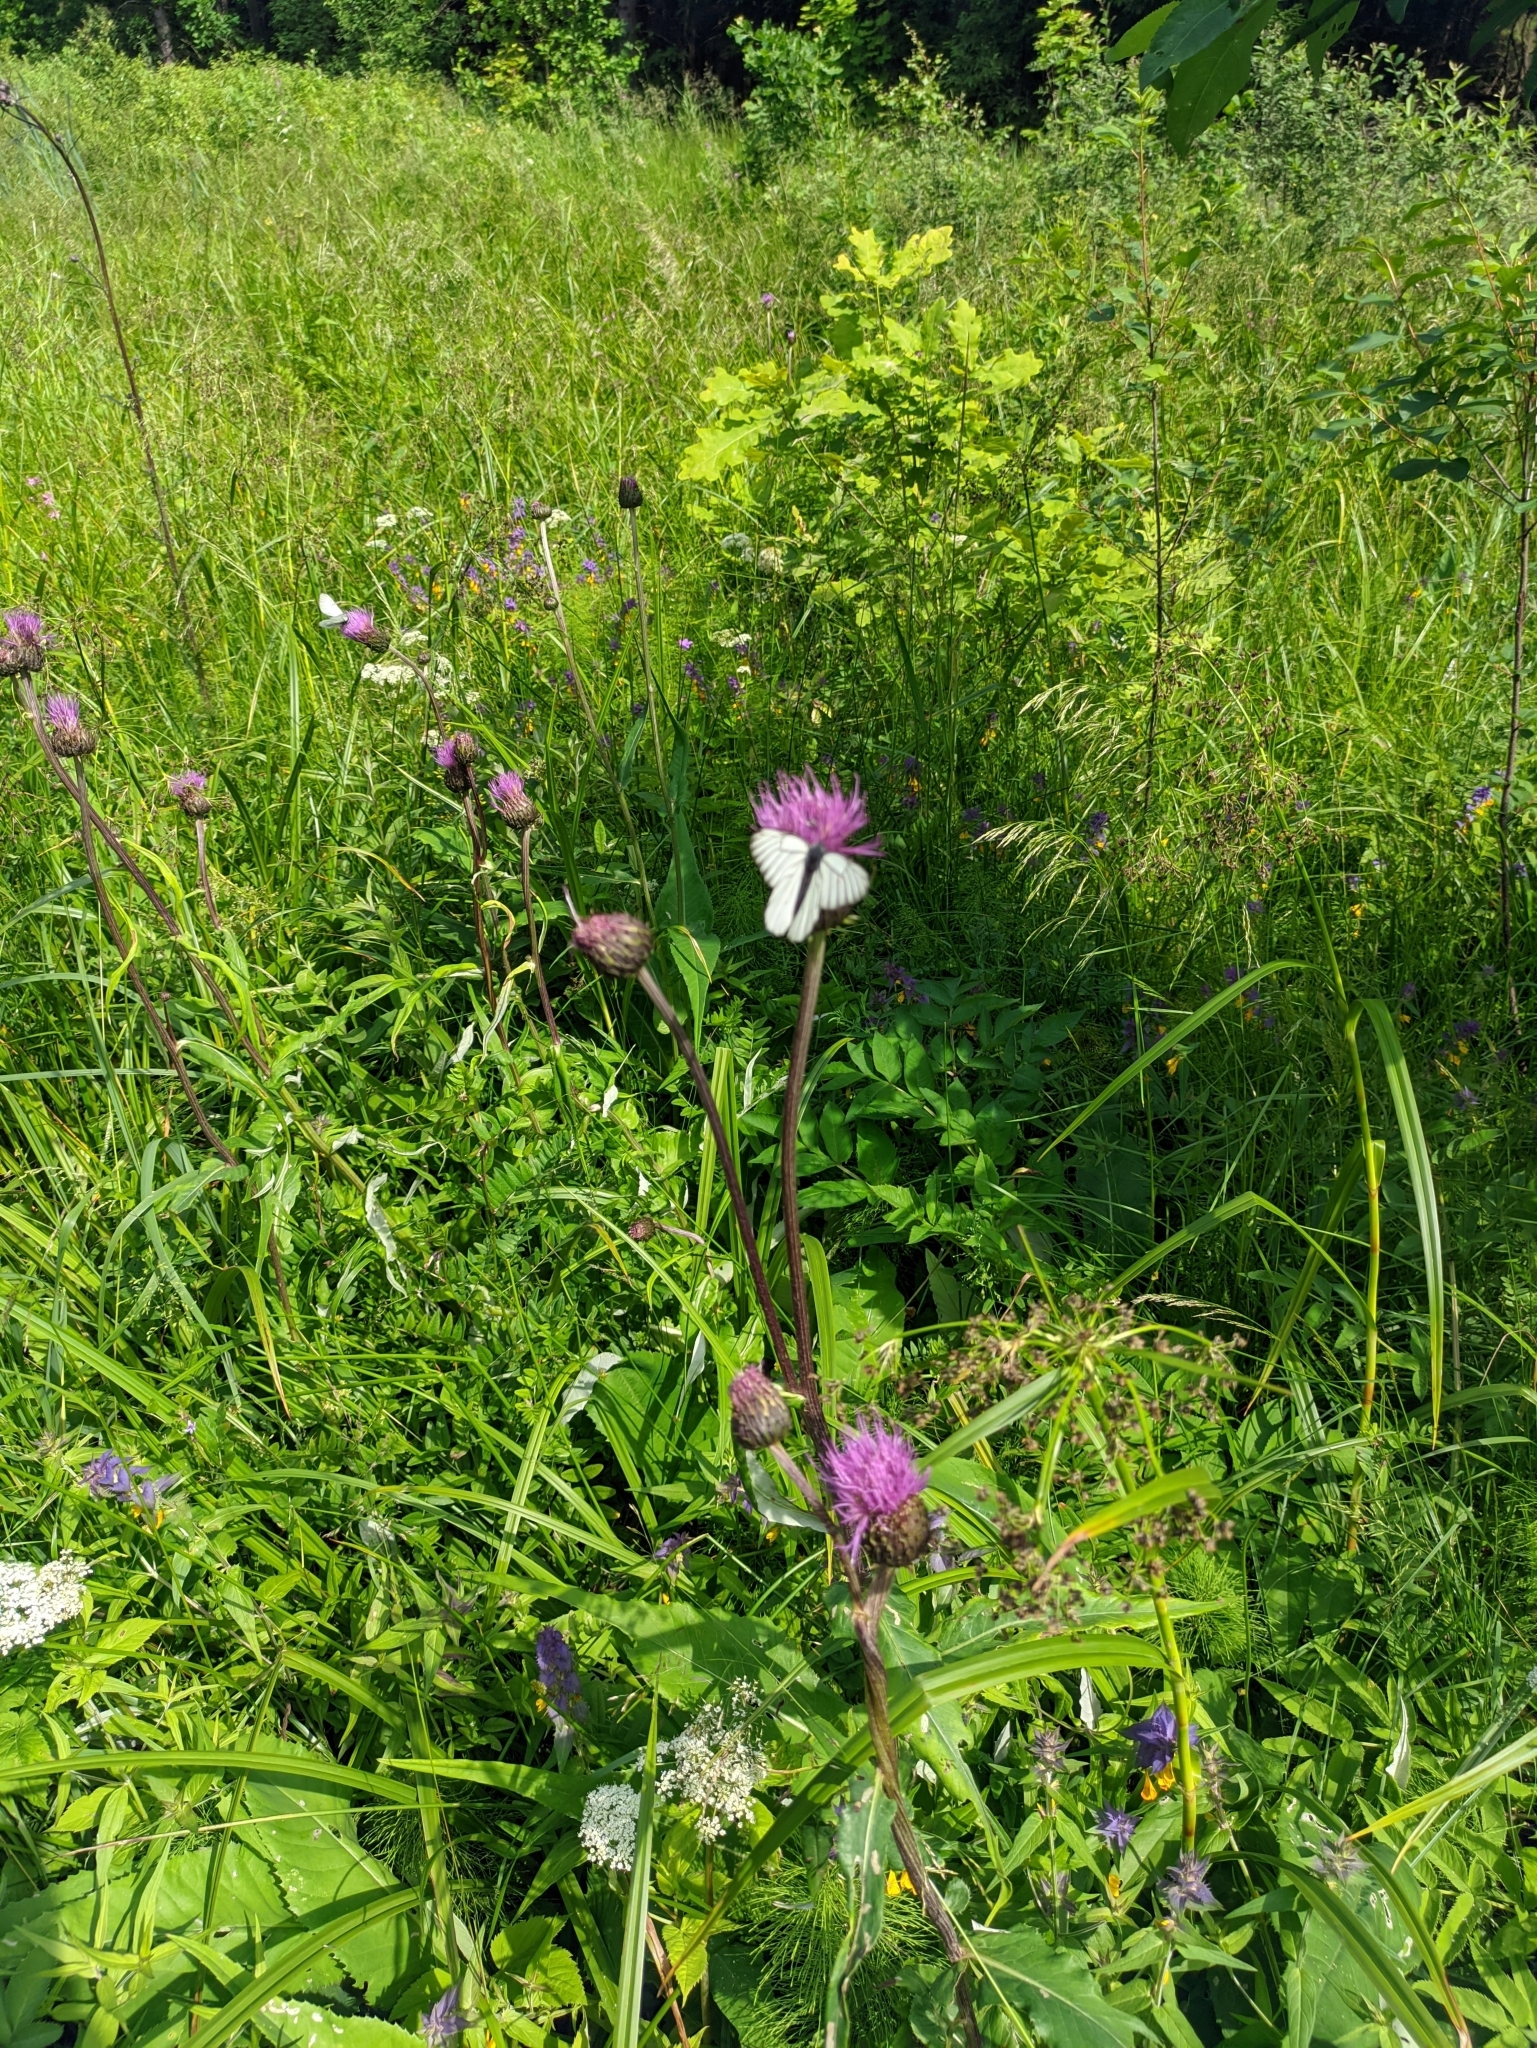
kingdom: Animalia
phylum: Arthropoda
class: Insecta
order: Lepidoptera
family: Pieridae
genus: Aporia
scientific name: Aporia crataegi
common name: Black-veined white
